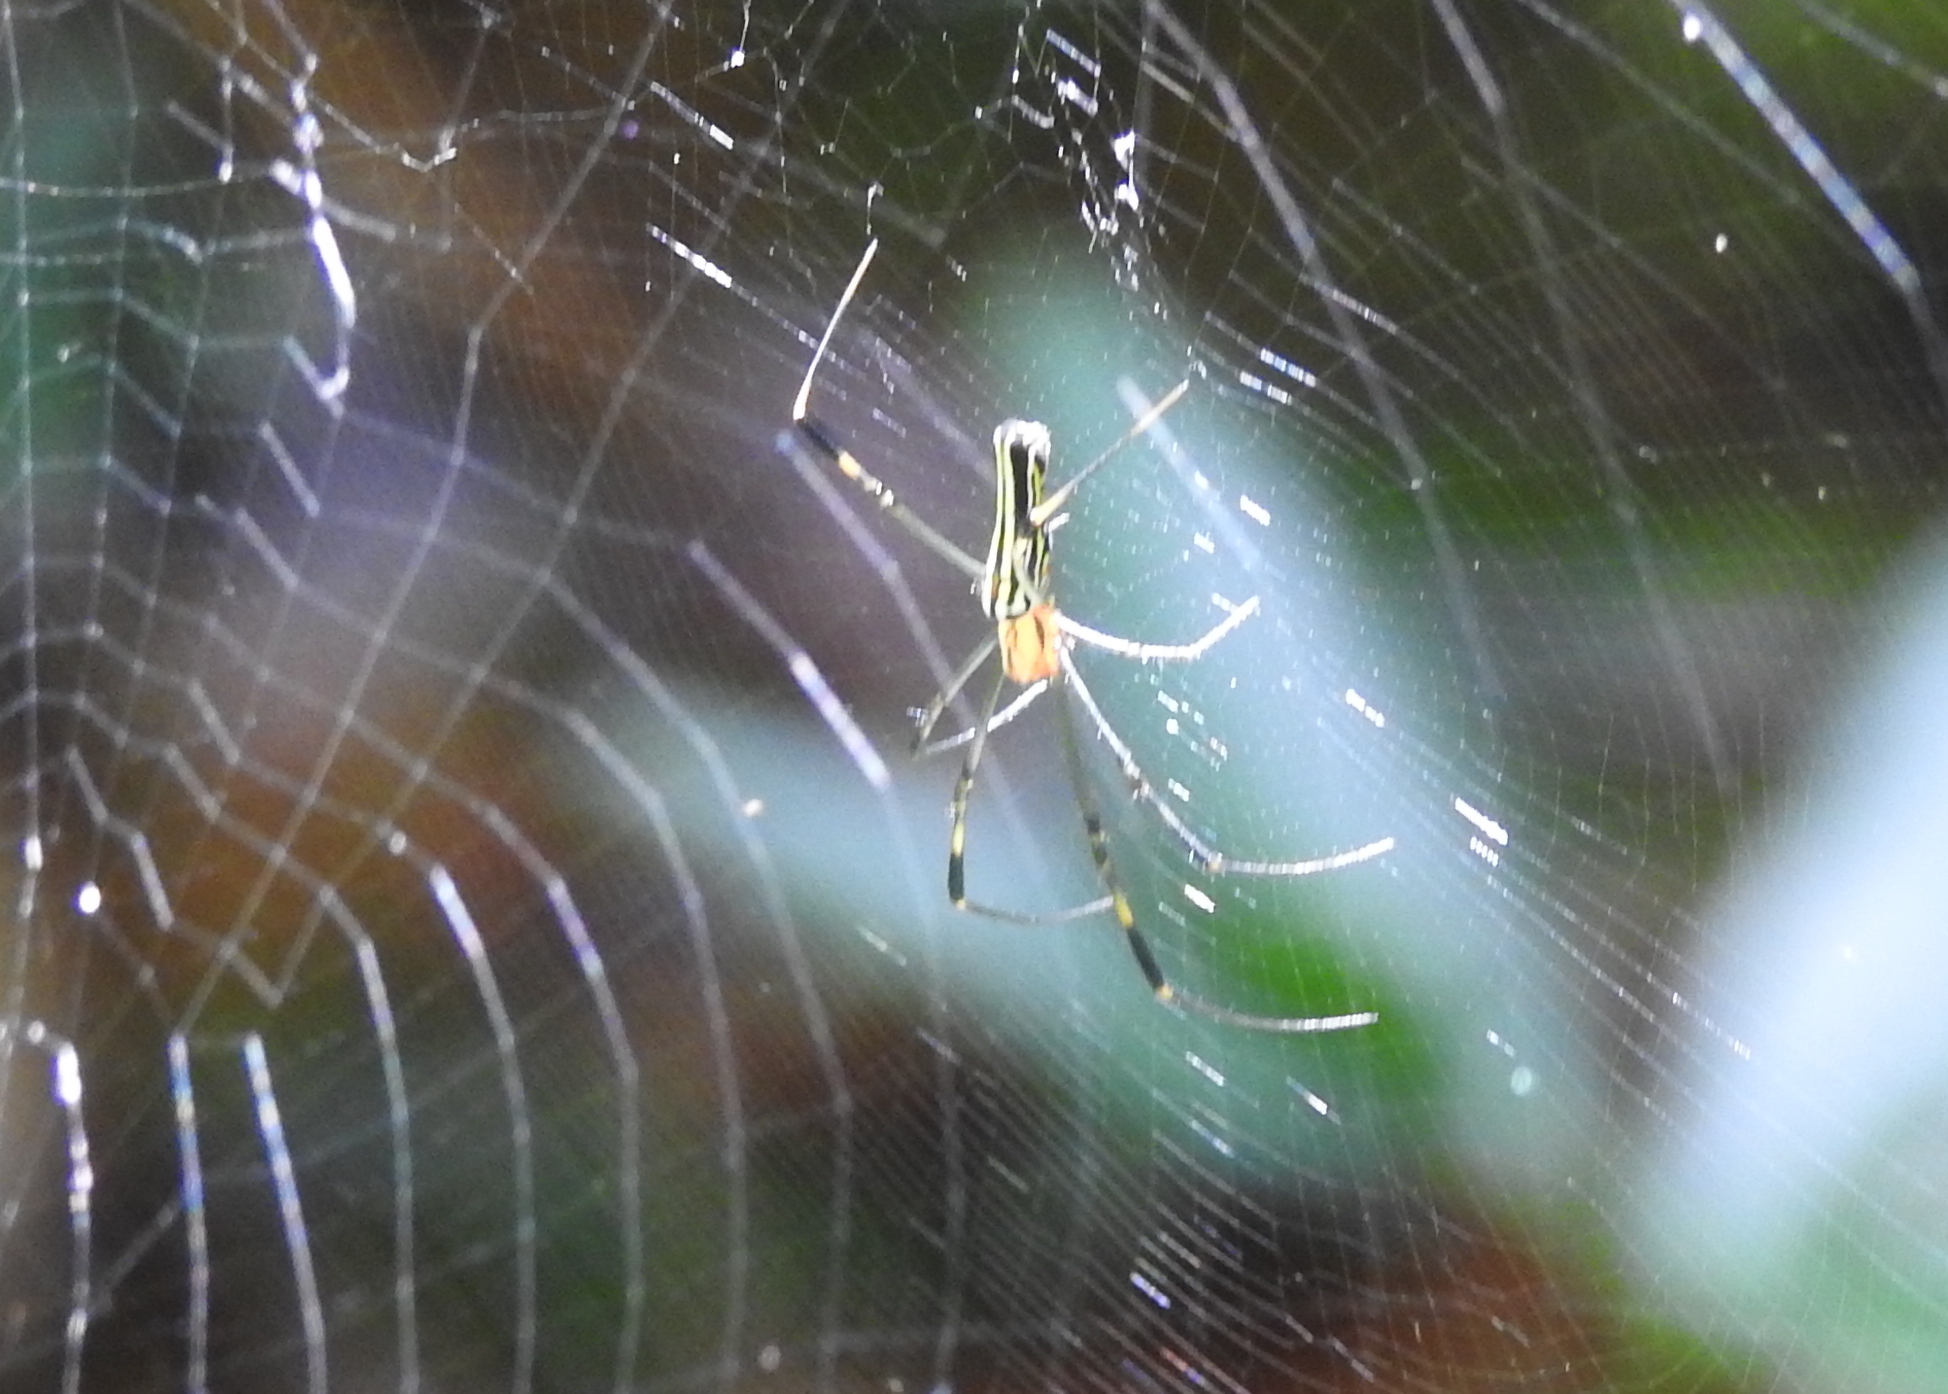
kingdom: Animalia
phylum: Arthropoda
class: Arachnida
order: Araneae
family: Araneidae
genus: Nephila
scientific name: Nephila pilipes
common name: Giant golden orb weaver
